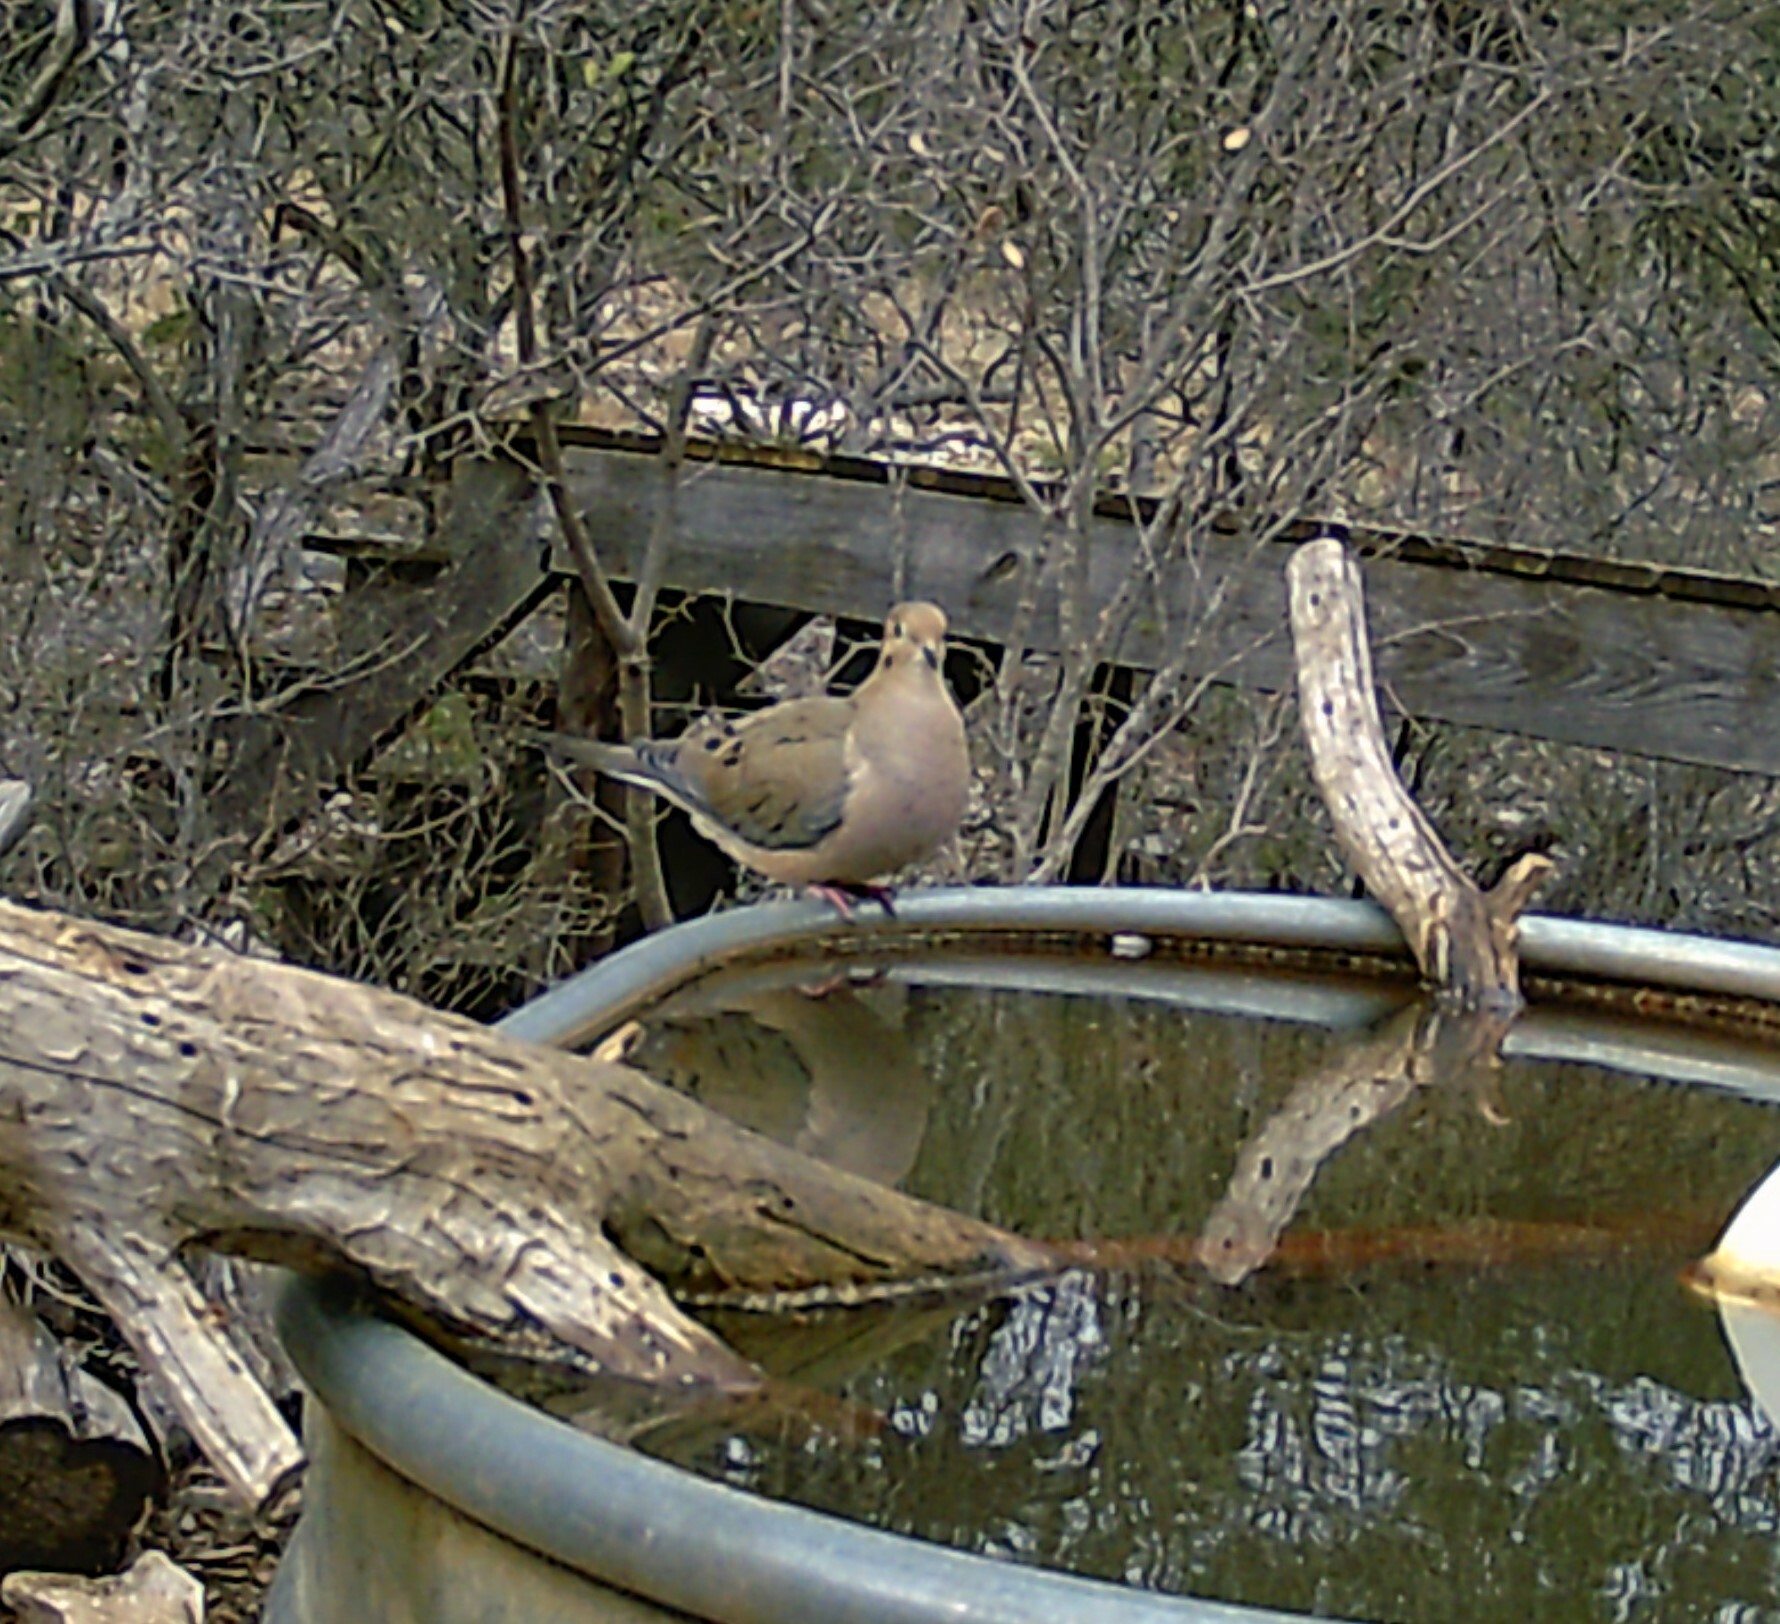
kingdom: Animalia
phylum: Chordata
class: Aves
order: Columbiformes
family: Columbidae
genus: Zenaida
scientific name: Zenaida macroura
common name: Mourning dove
